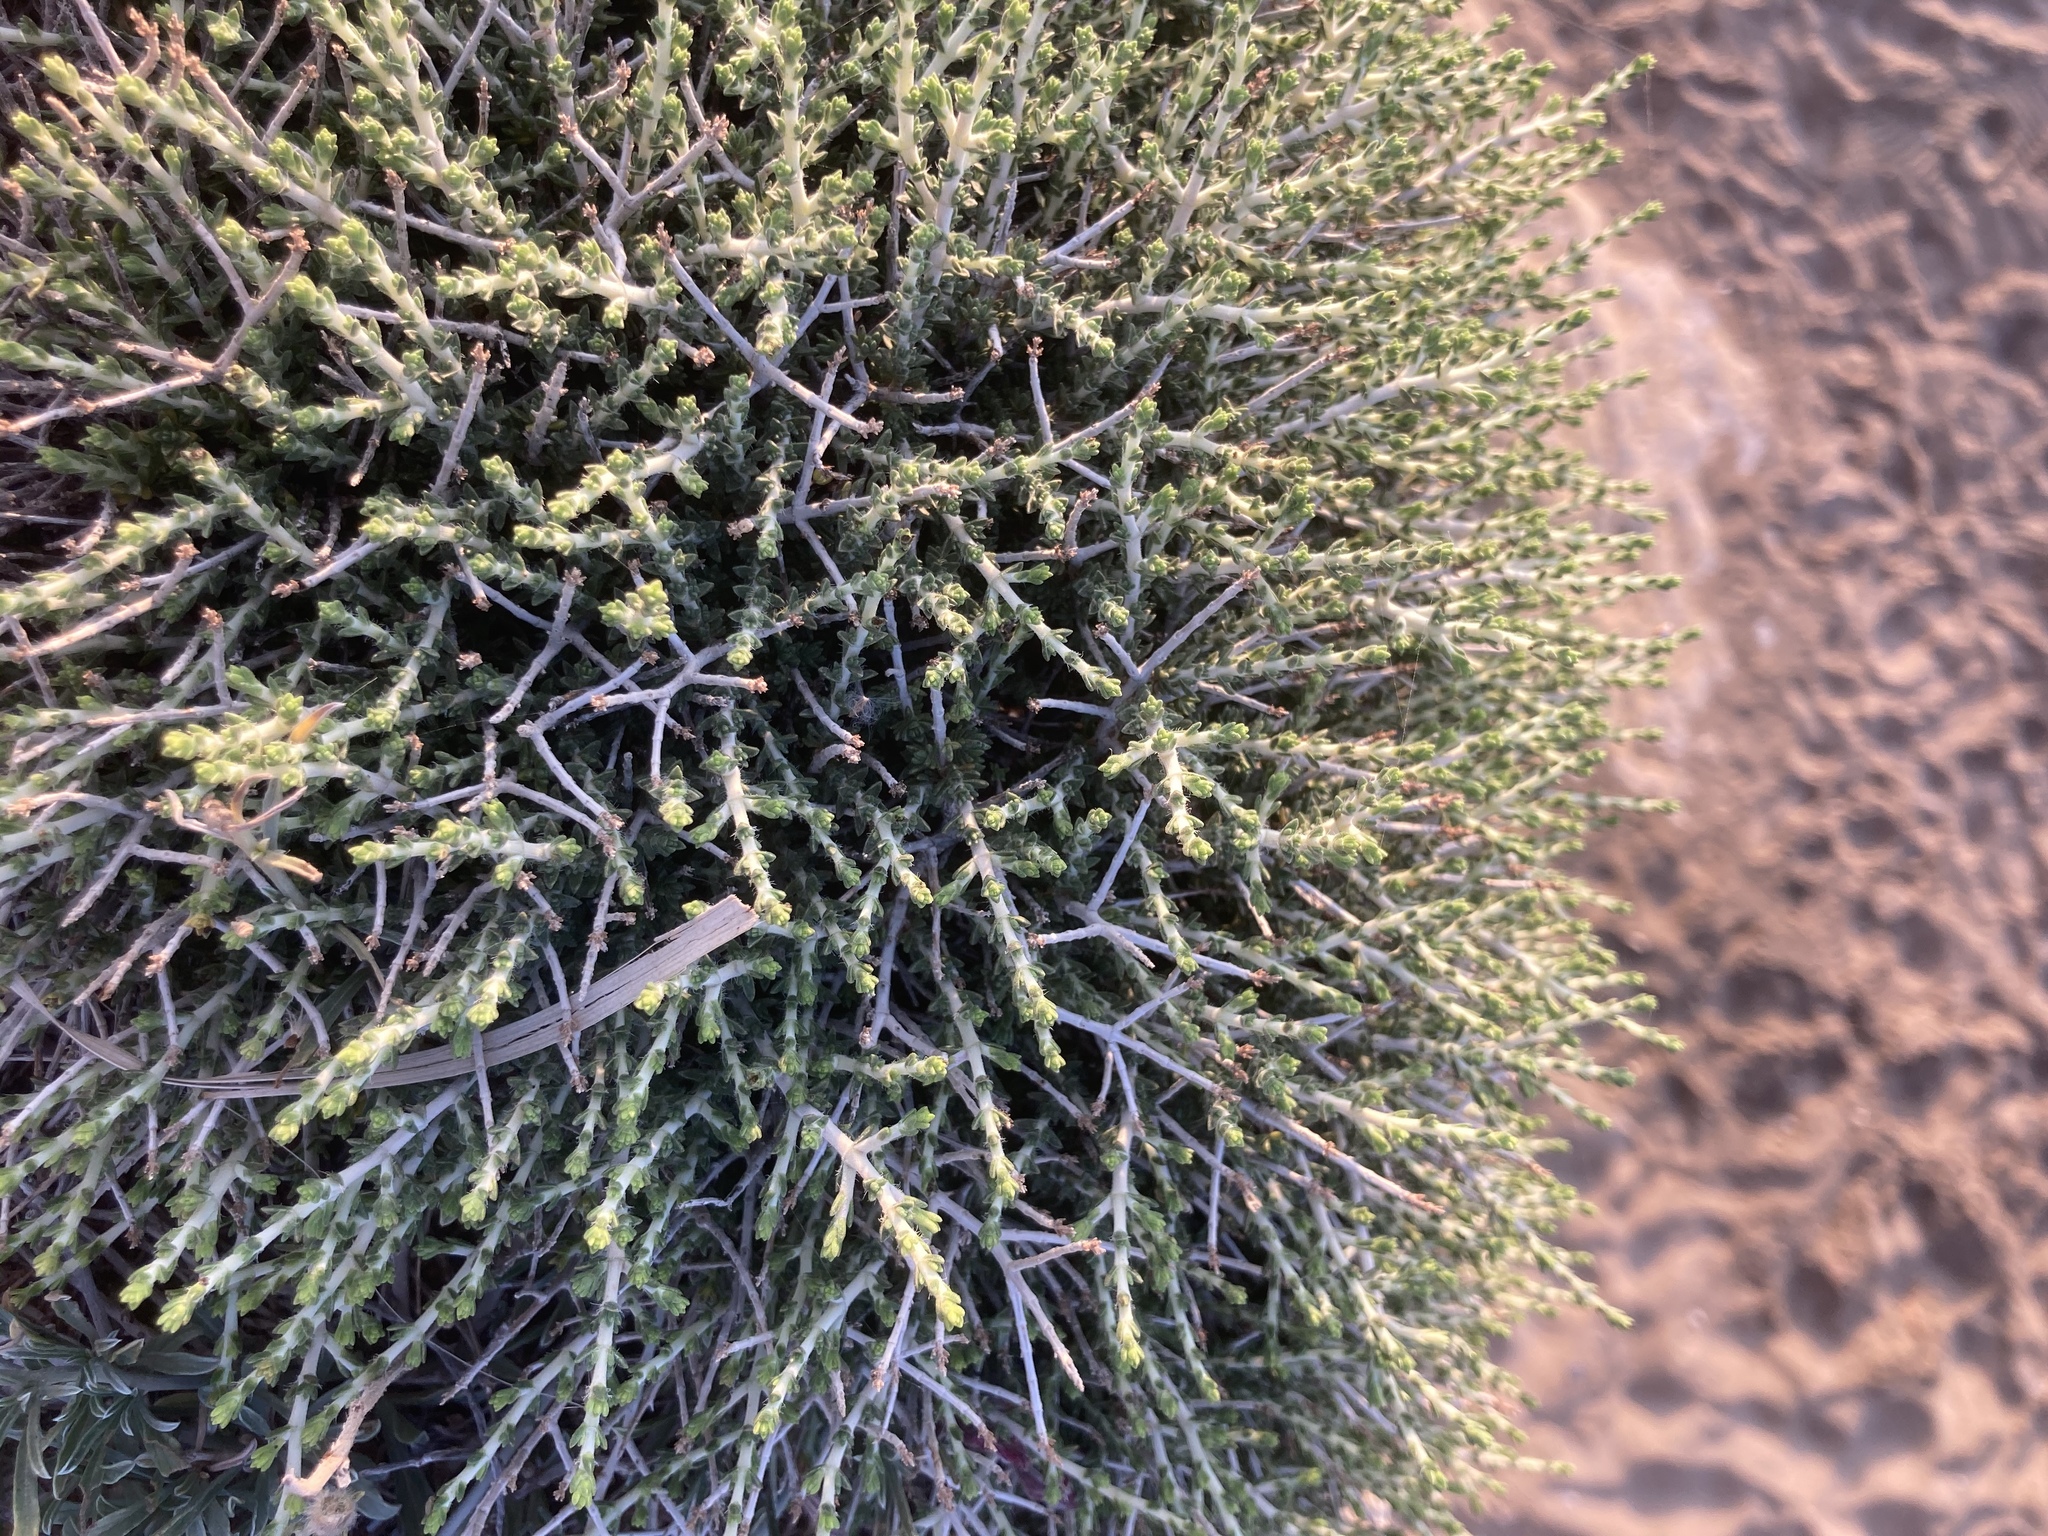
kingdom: Plantae
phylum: Tracheophyta
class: Magnoliopsida
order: Malvales
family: Thymelaeaceae
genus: Thymelaea
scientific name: Thymelaea hirsuta
